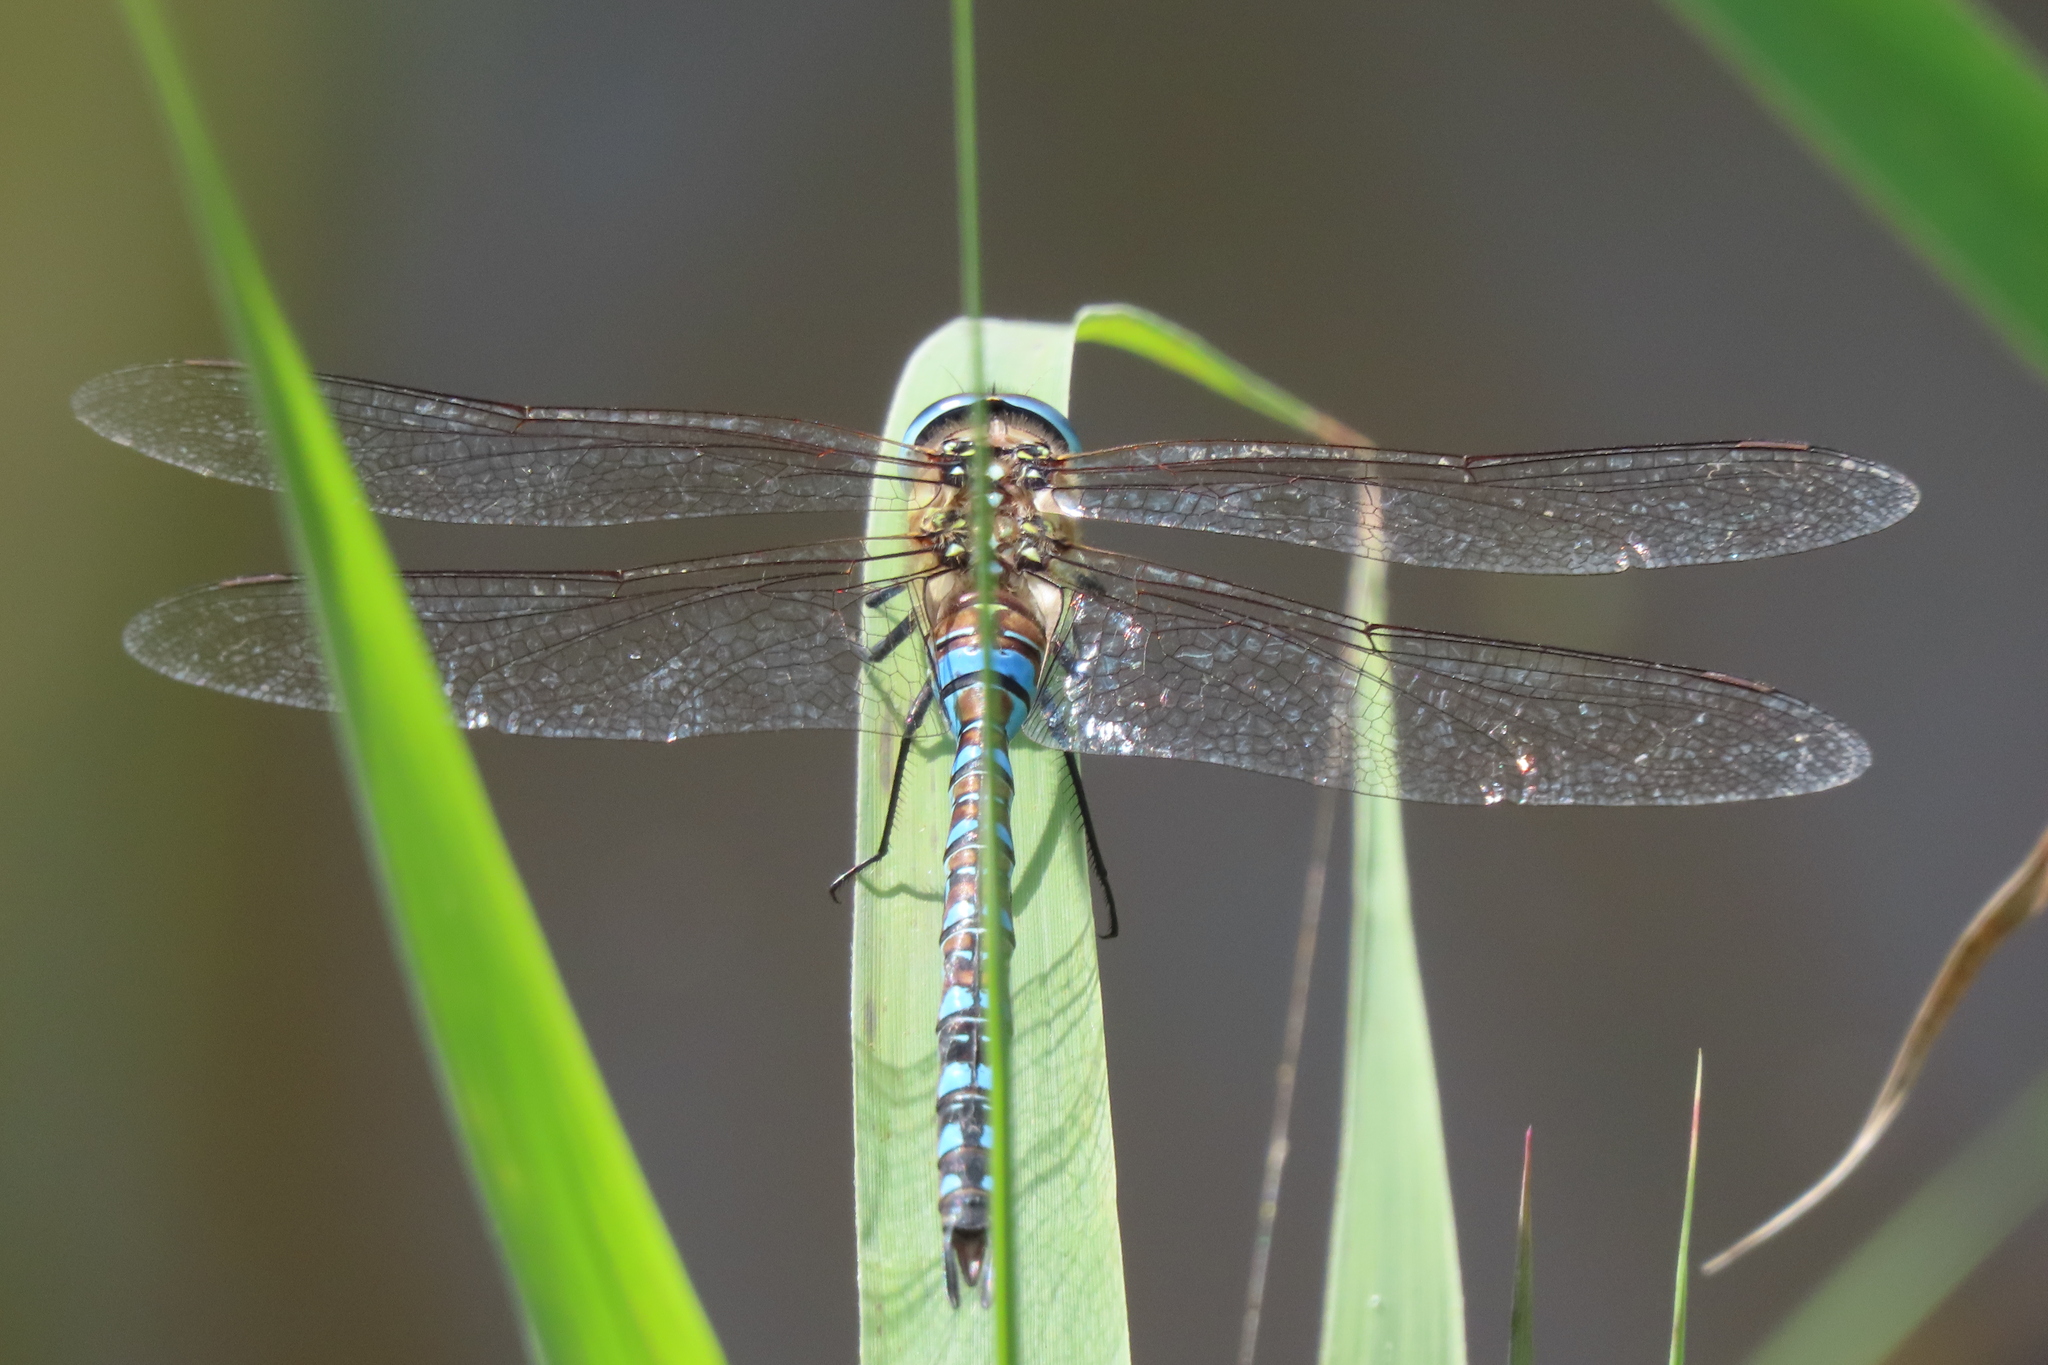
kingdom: Animalia
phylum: Arthropoda
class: Insecta
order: Odonata
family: Aeshnidae
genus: Aeshna
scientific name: Aeshna mixta
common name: Migrant hawker
